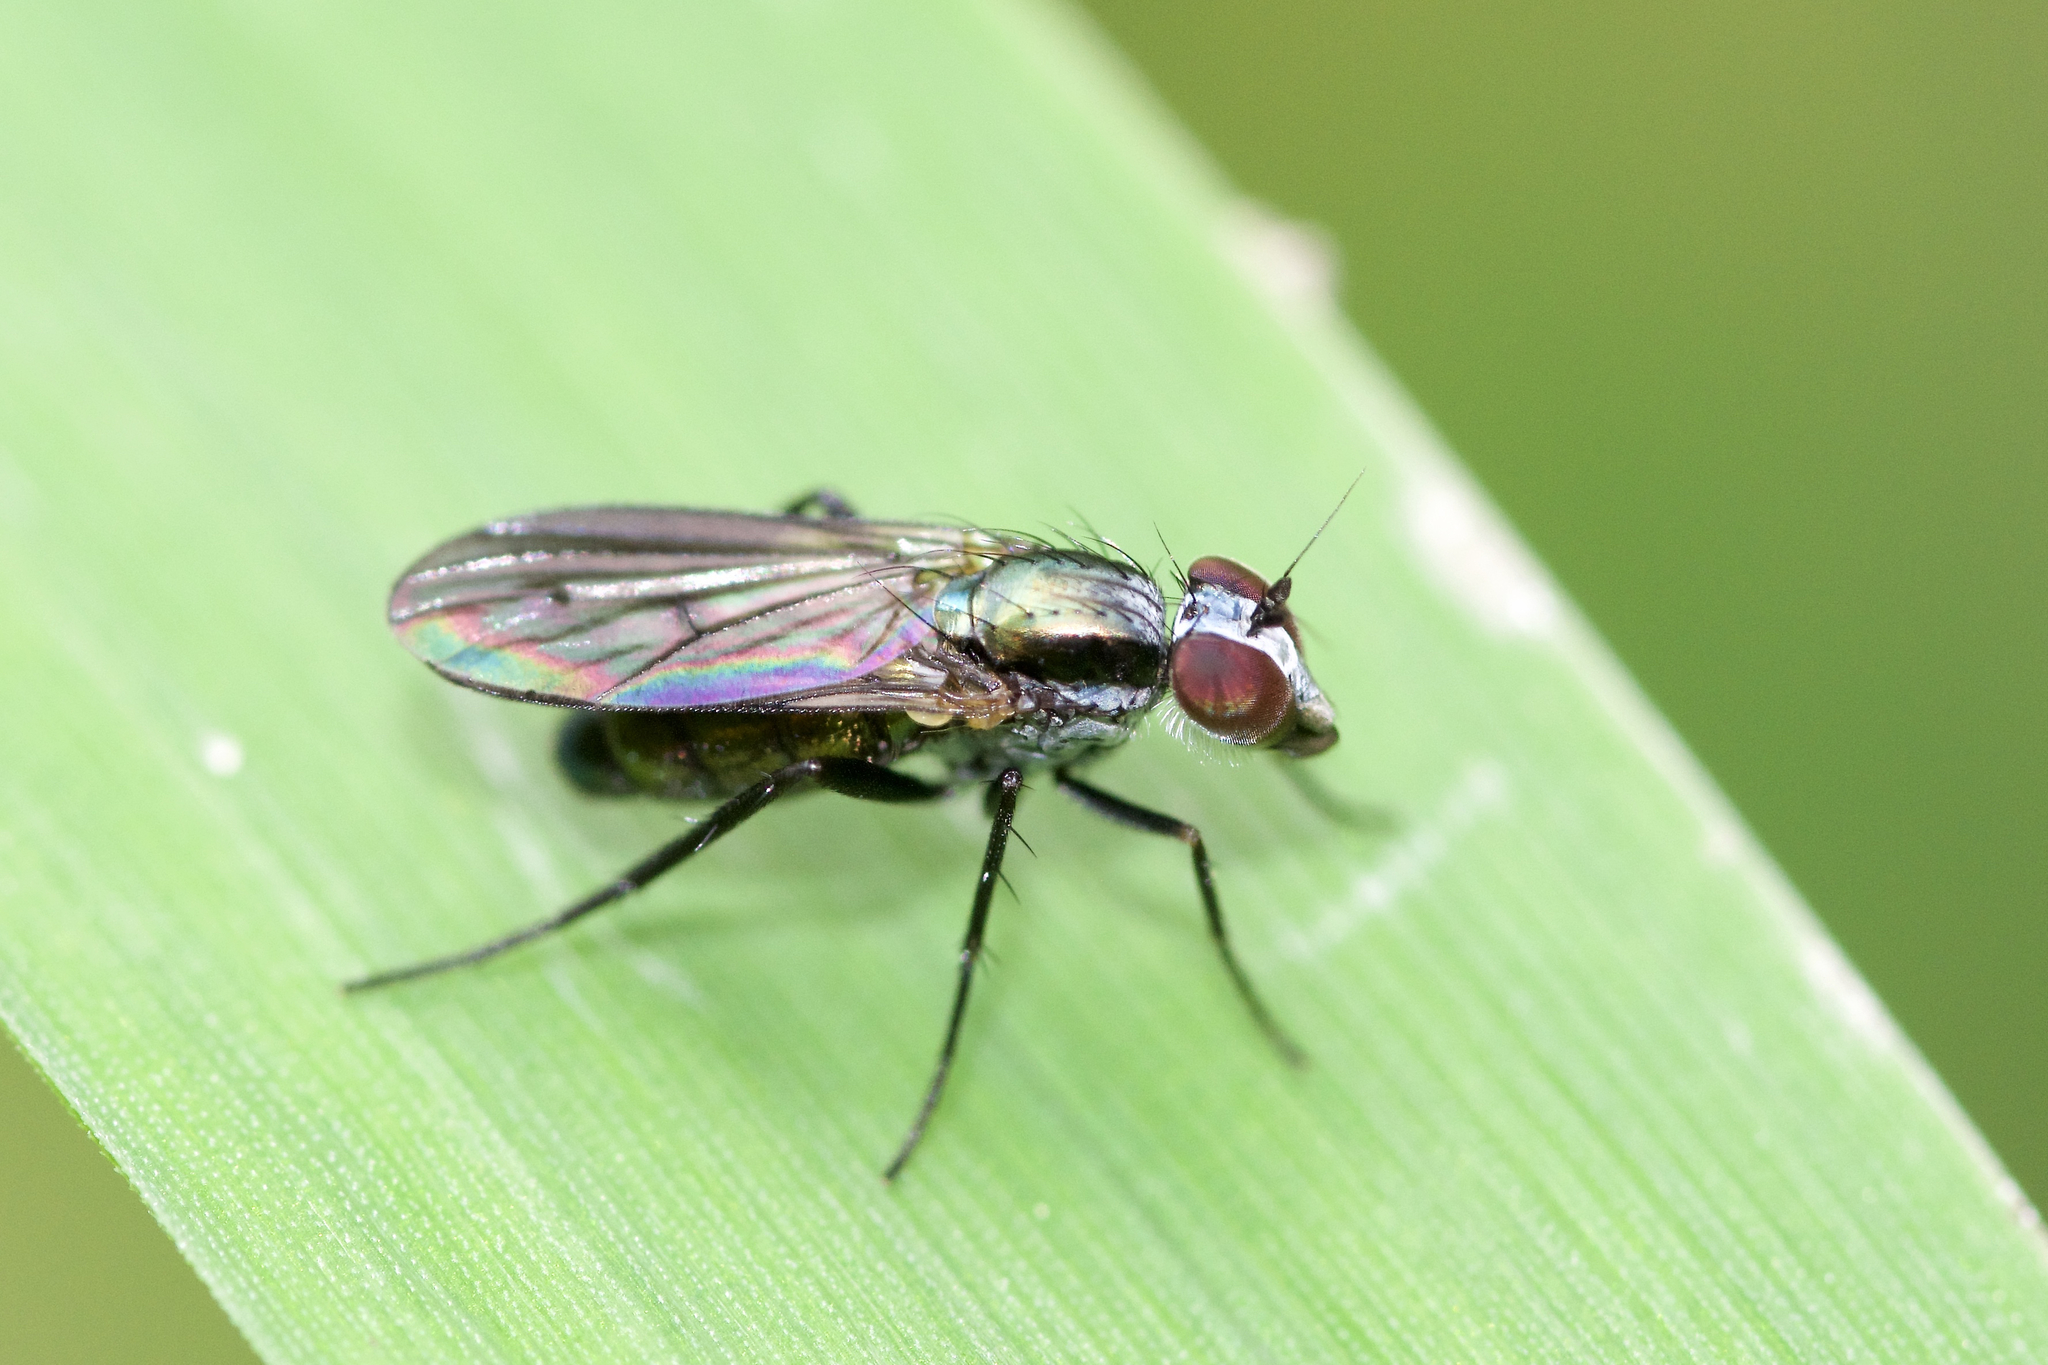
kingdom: Animalia
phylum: Arthropoda
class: Insecta
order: Diptera
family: Dolichopodidae
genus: Rhaphium
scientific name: Rhaphium melampus
